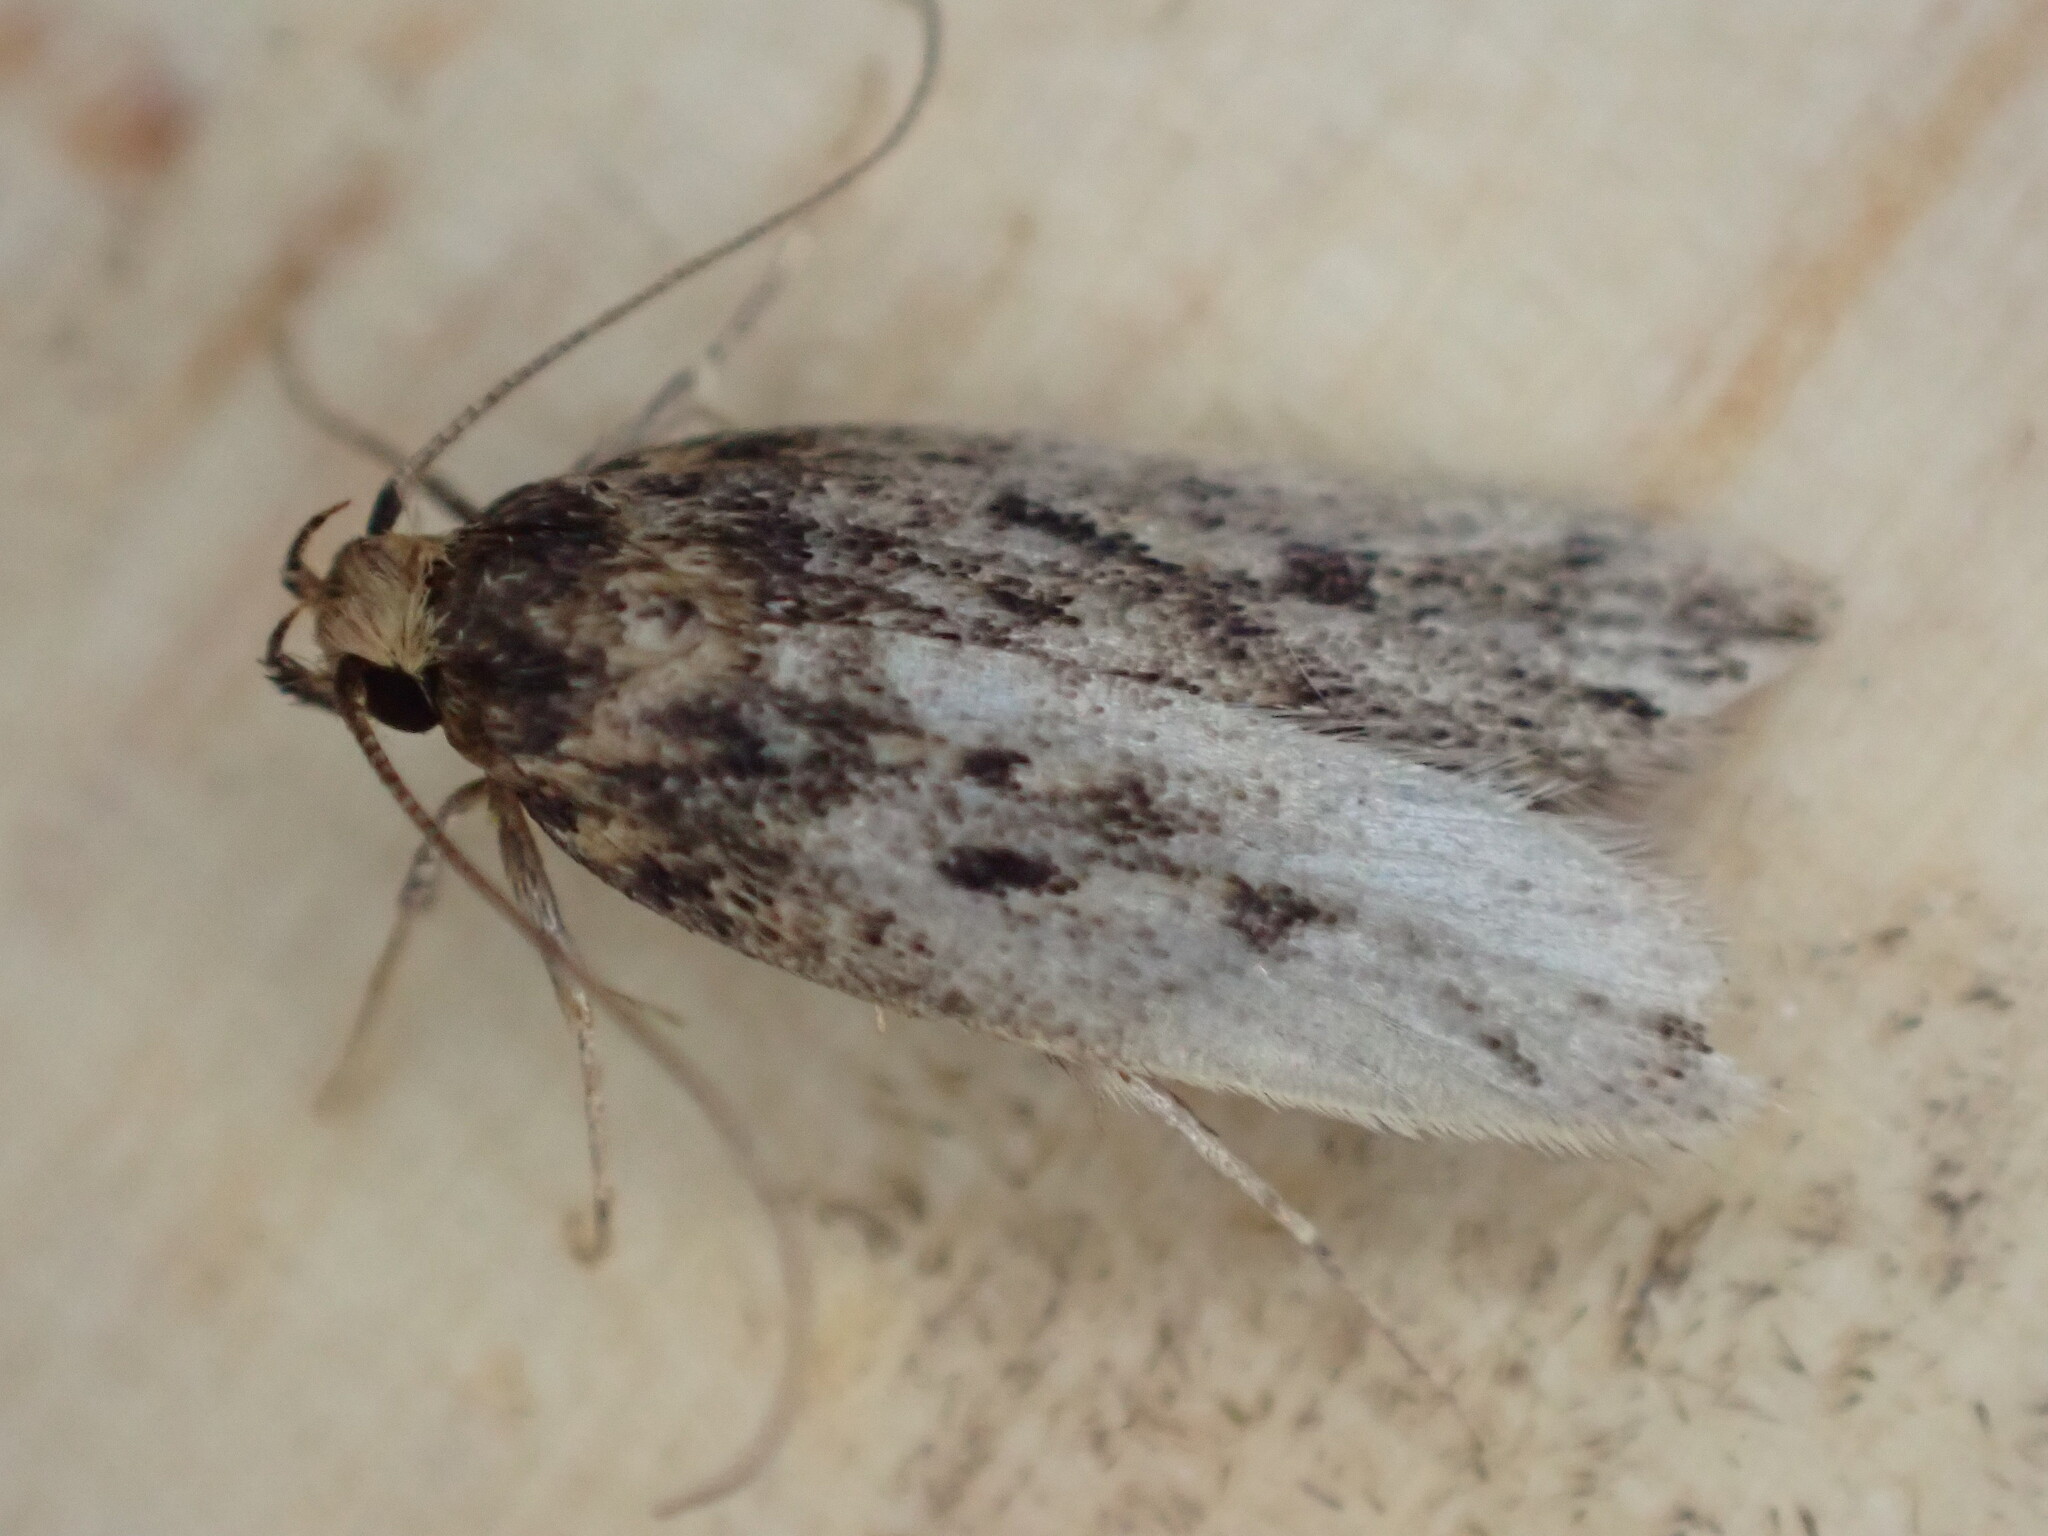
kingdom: Animalia
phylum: Arthropoda
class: Insecta
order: Lepidoptera
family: Oecophoridae
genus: Hofmannophila
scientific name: Hofmannophila pseudospretella
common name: Brown house moth
